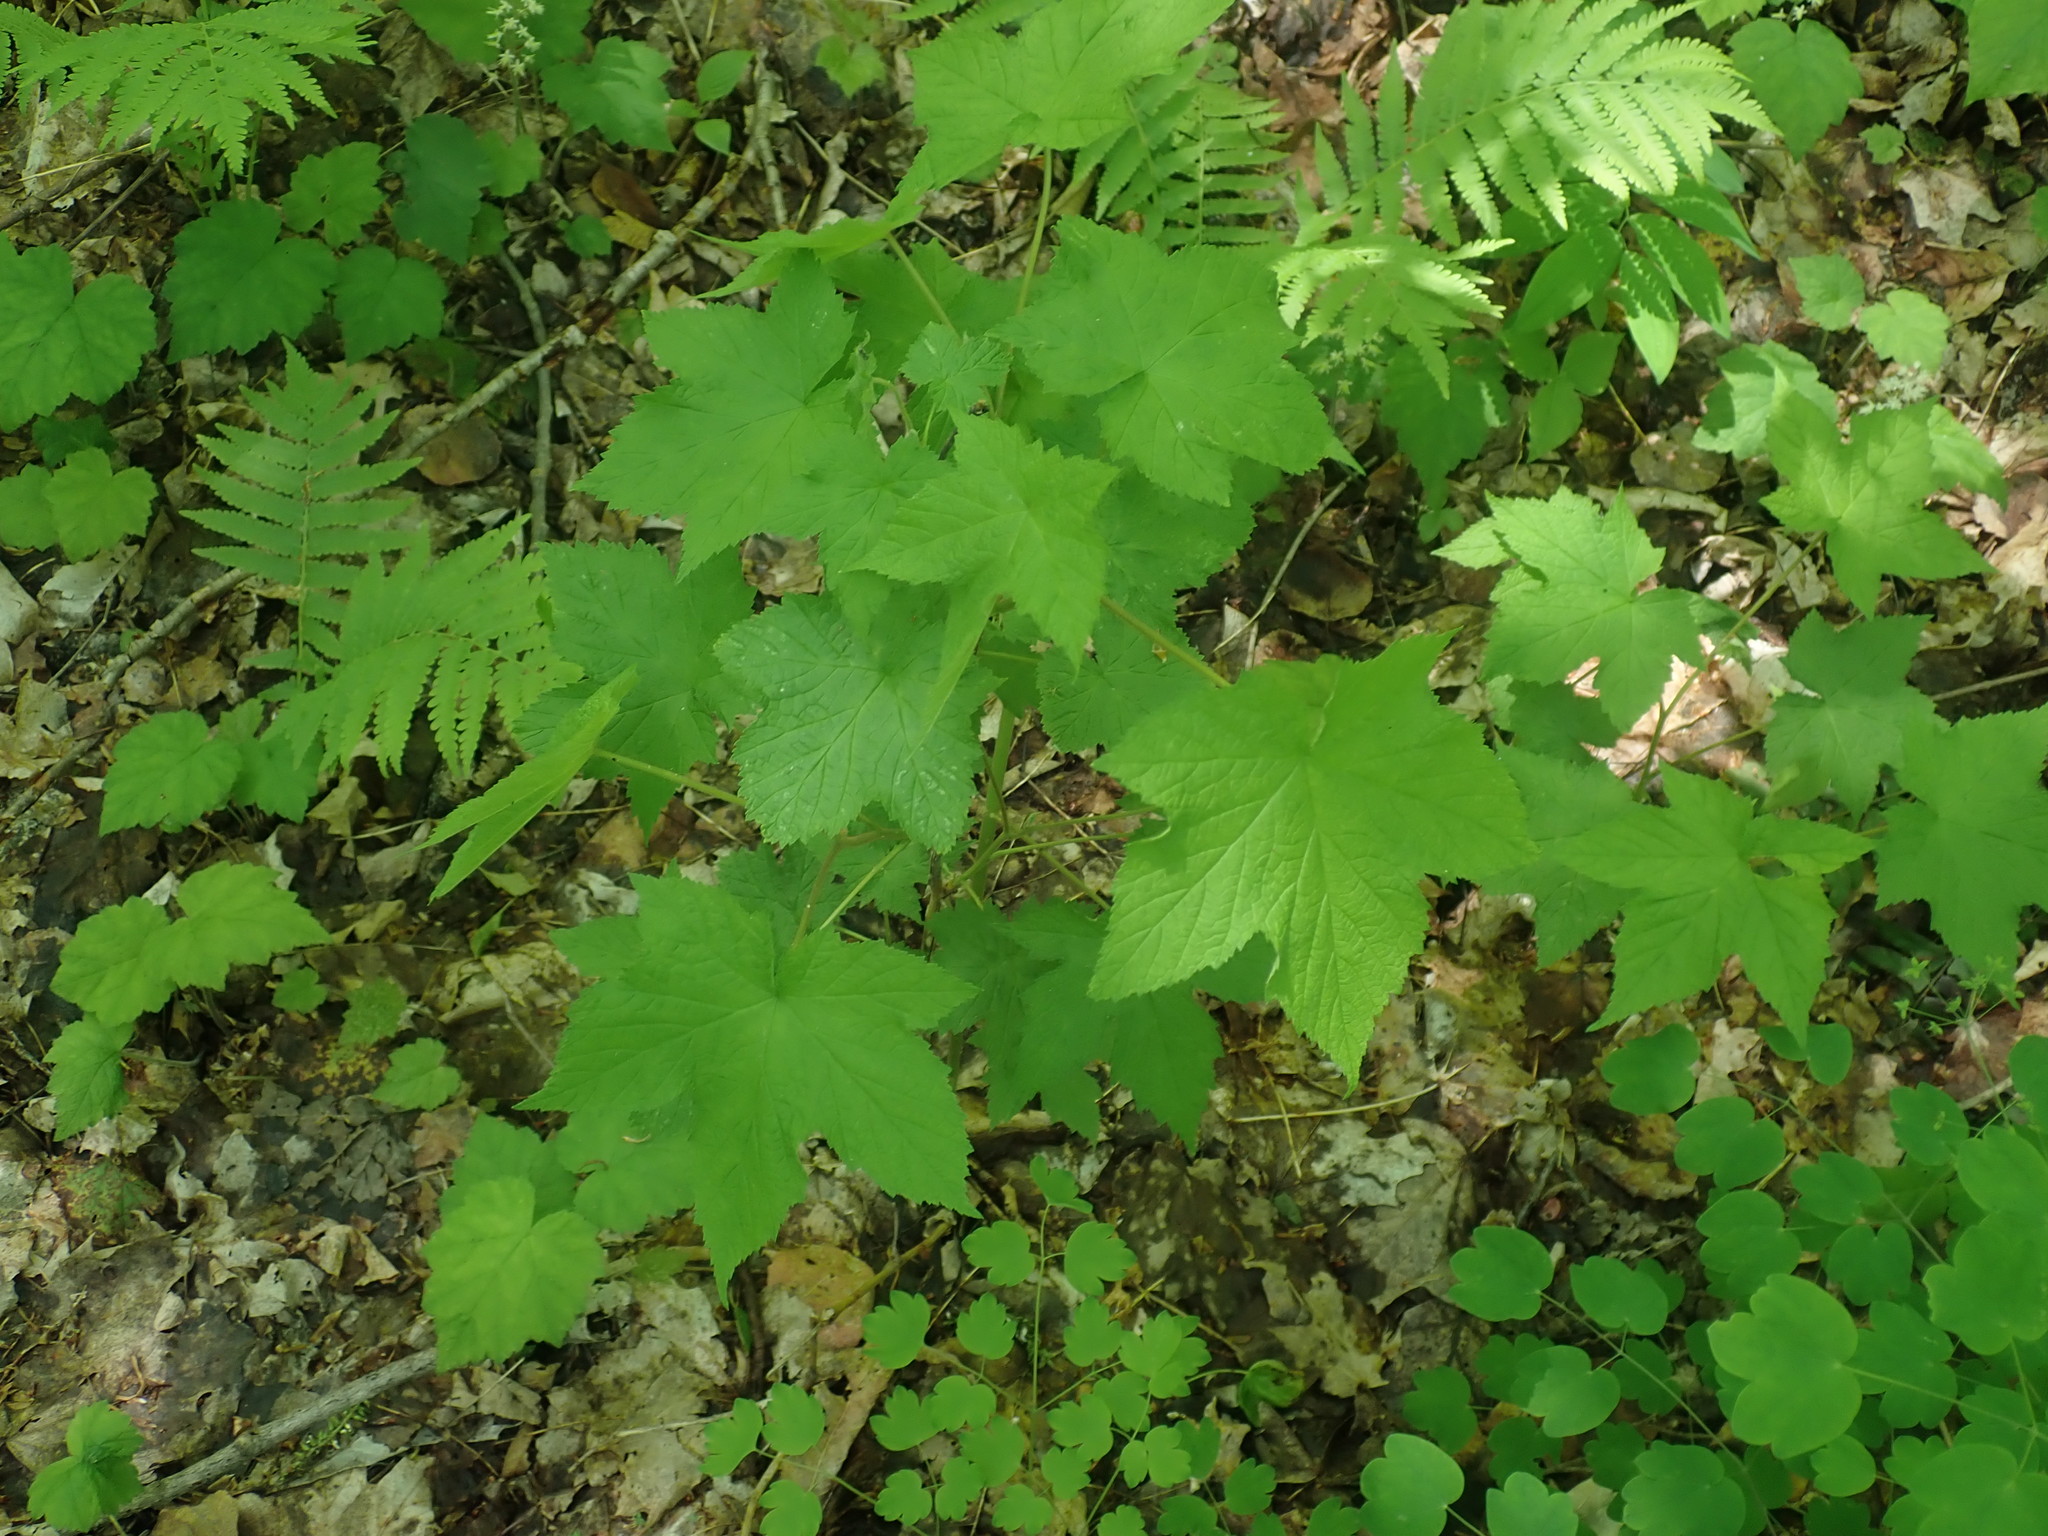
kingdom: Plantae
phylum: Tracheophyta
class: Magnoliopsida
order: Rosales
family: Rosaceae
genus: Rubus
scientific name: Rubus odoratus
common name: Purple-flowered raspberry
